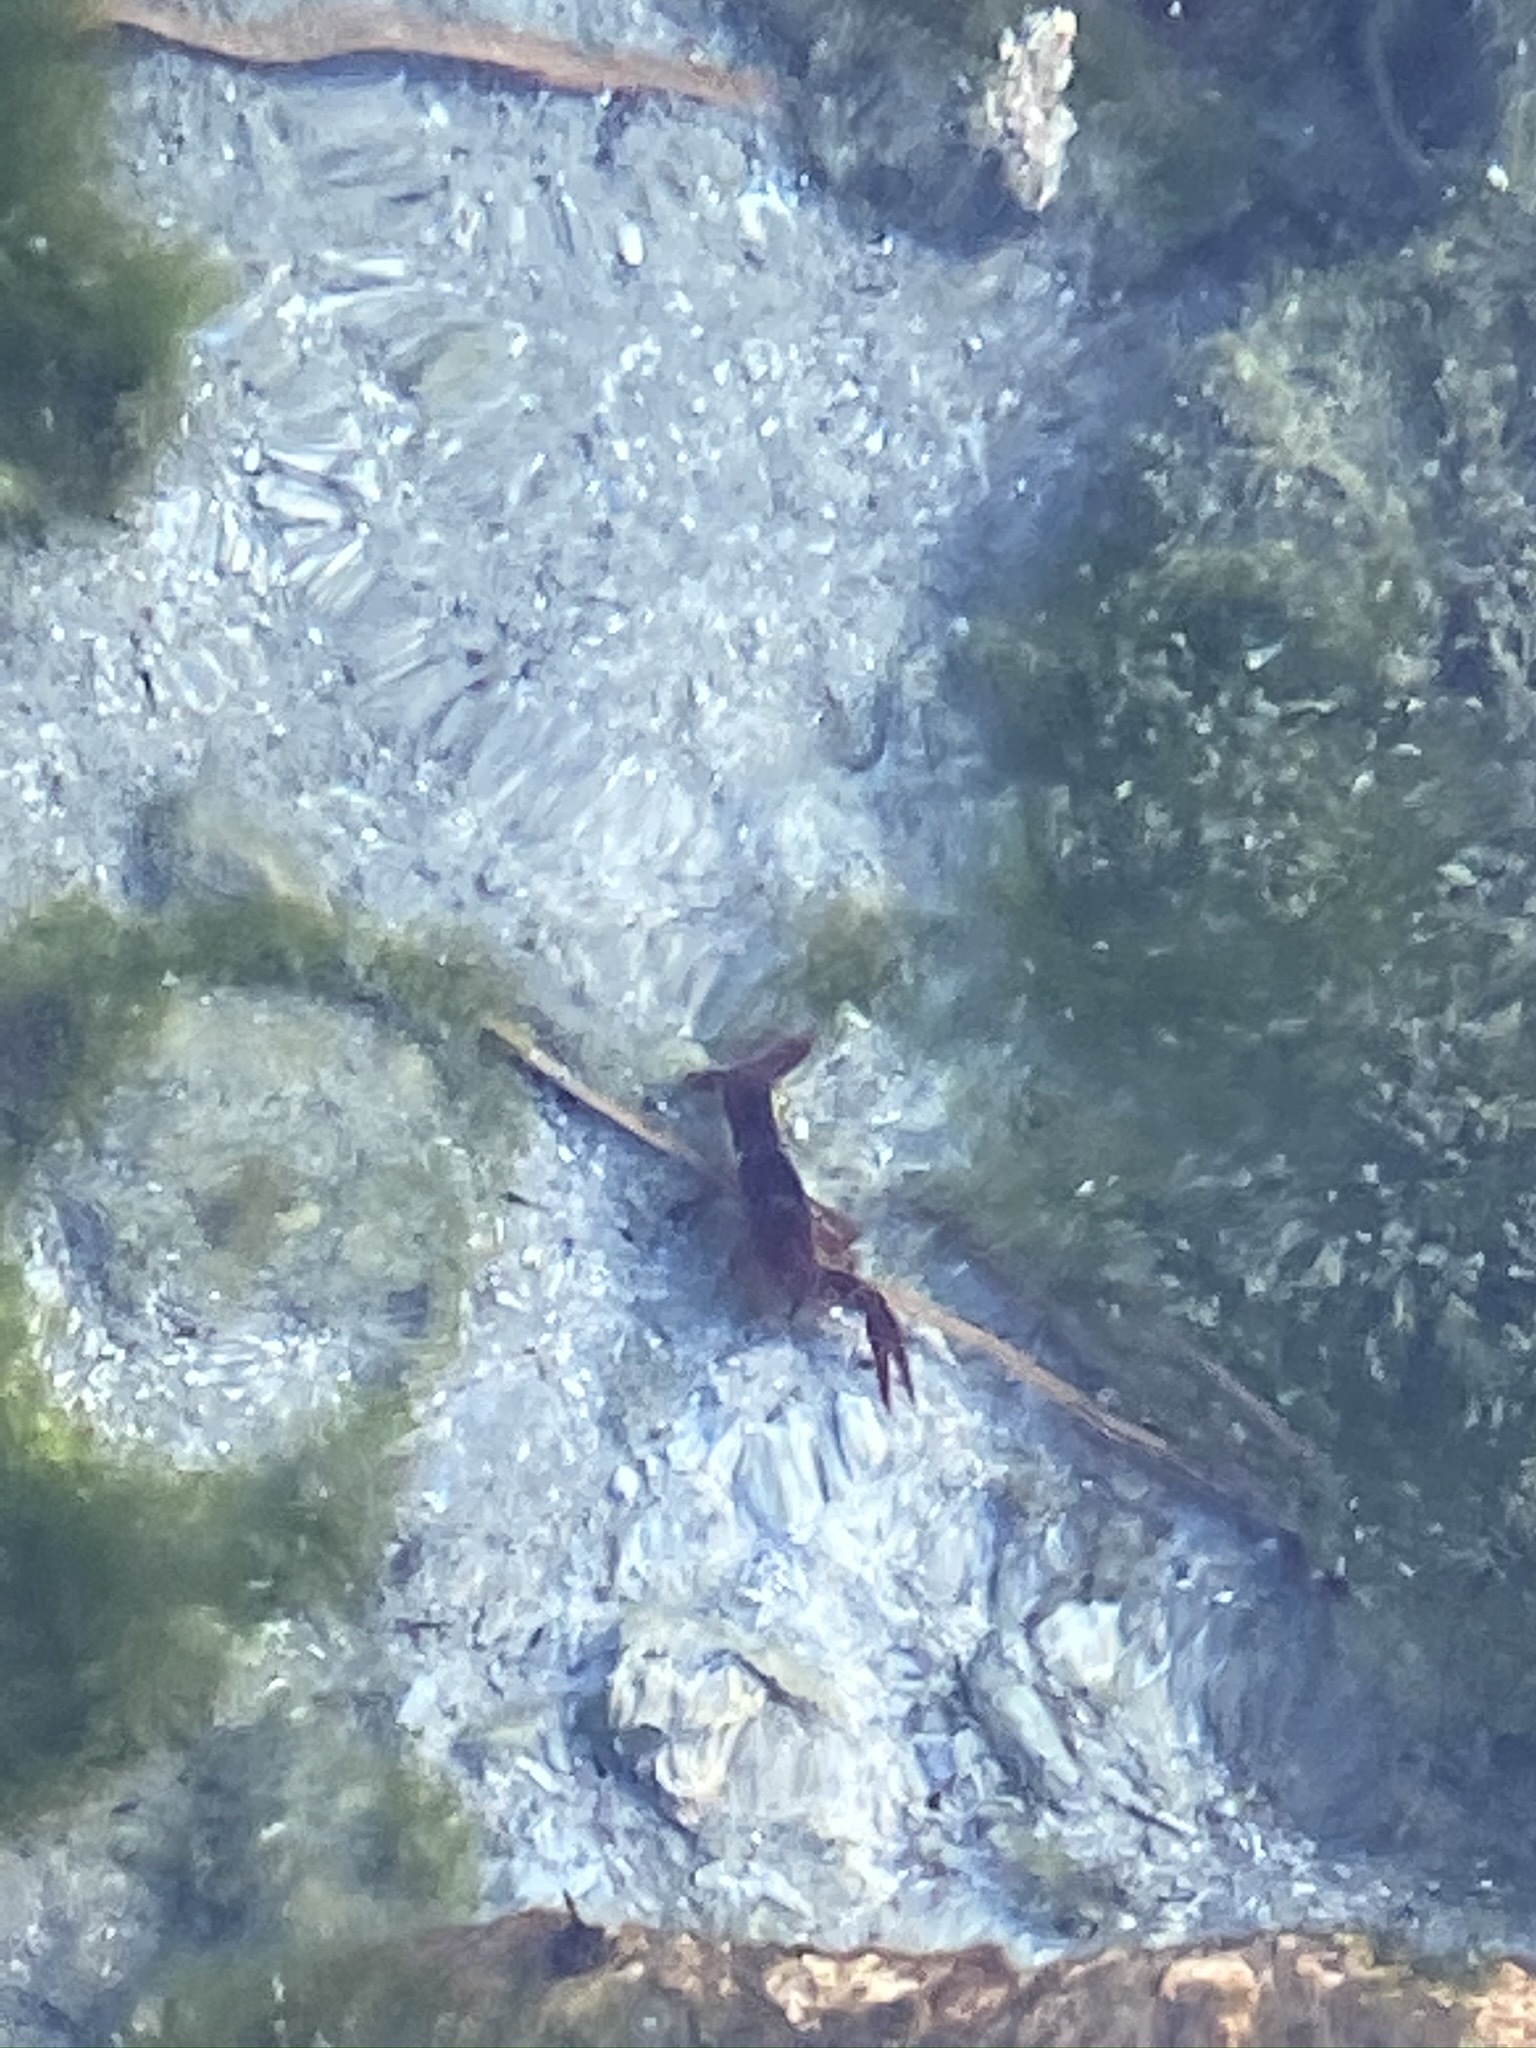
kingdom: Animalia
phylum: Arthropoda
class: Malacostraca
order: Decapoda
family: Cambaridae
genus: Procambarus
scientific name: Procambarus clarkii
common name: Red swamp crayfish
